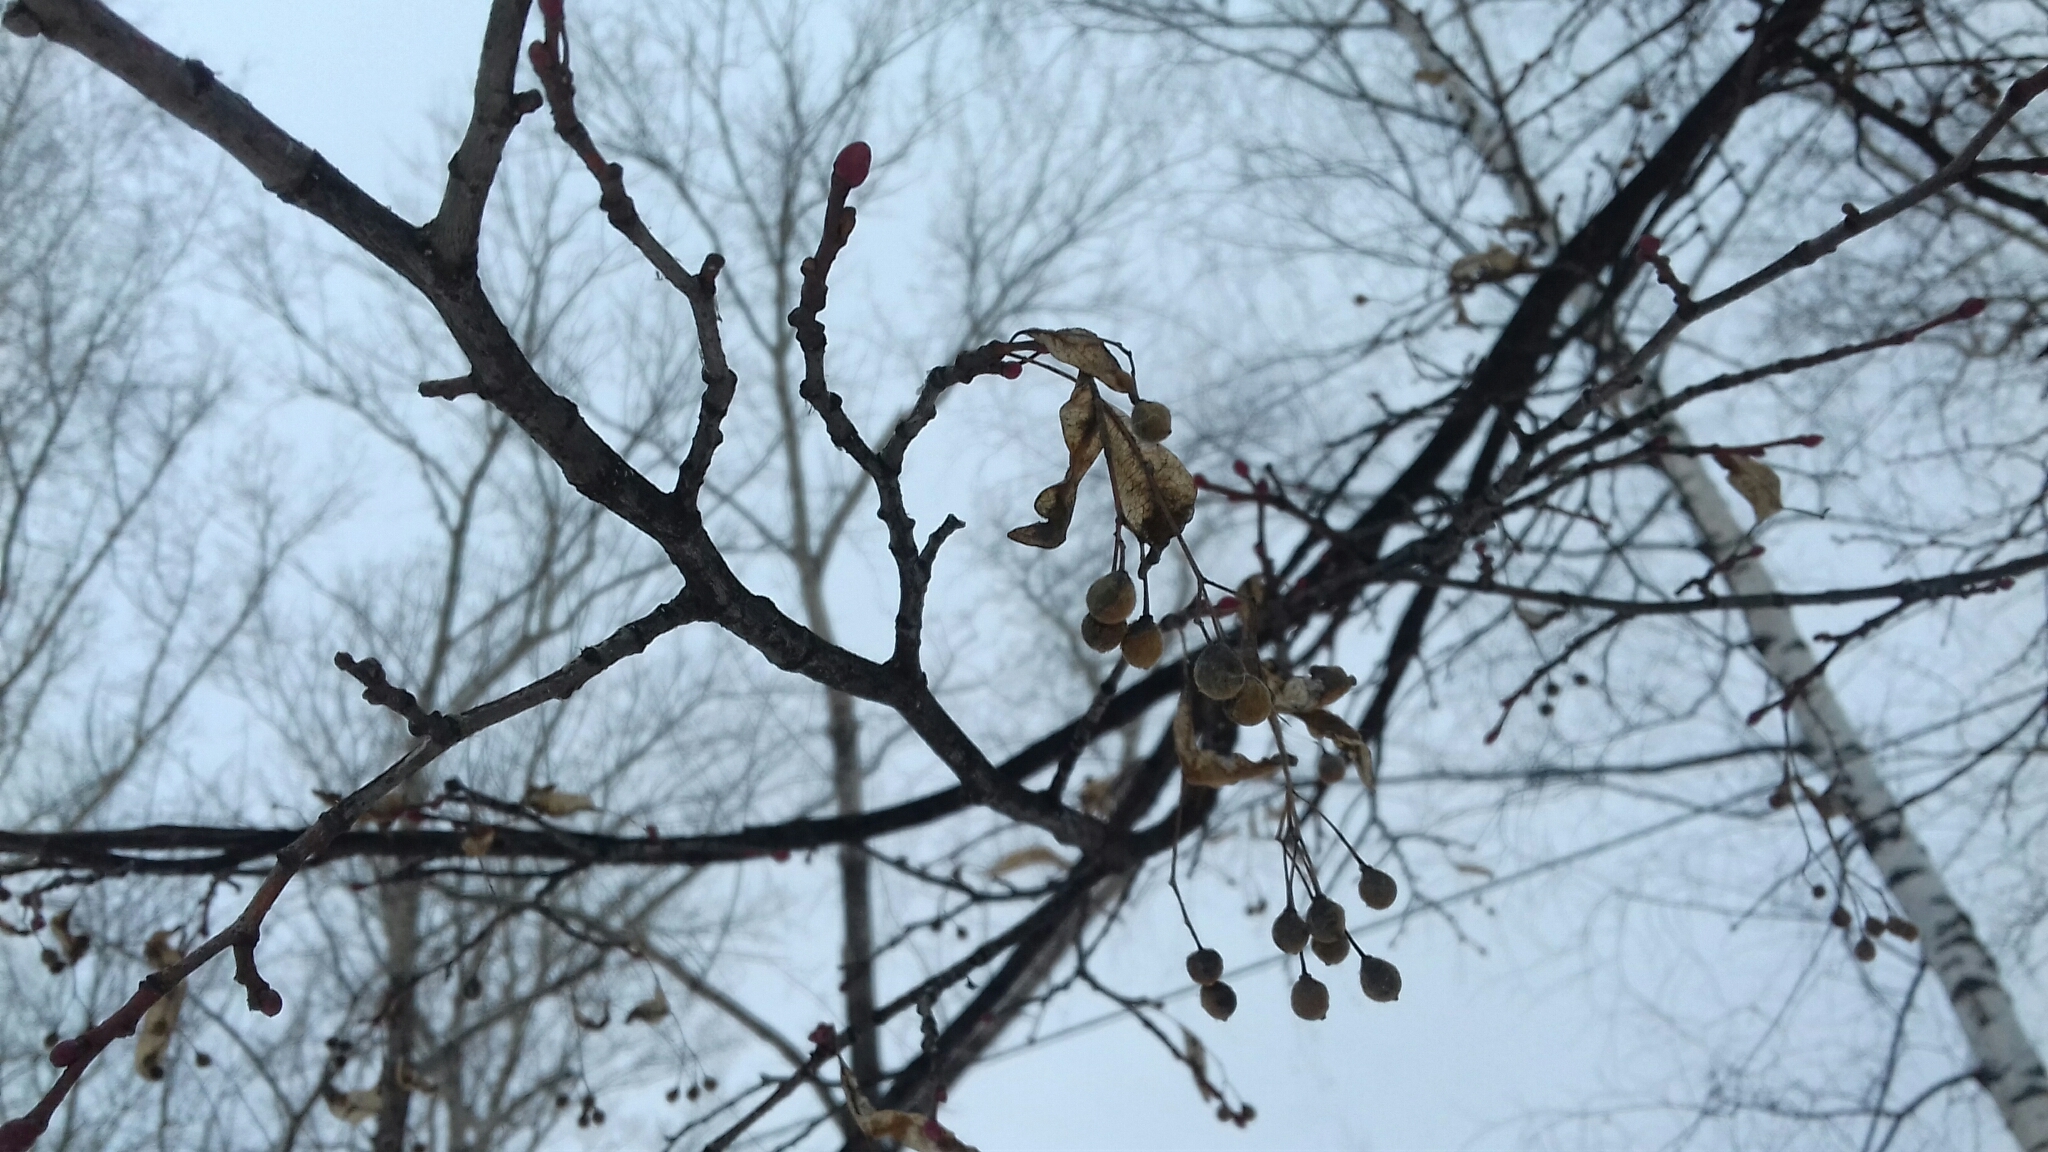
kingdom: Plantae
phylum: Tracheophyta
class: Magnoliopsida
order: Malvales
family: Malvaceae
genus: Tilia
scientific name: Tilia cordata
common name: Small-leaved lime
